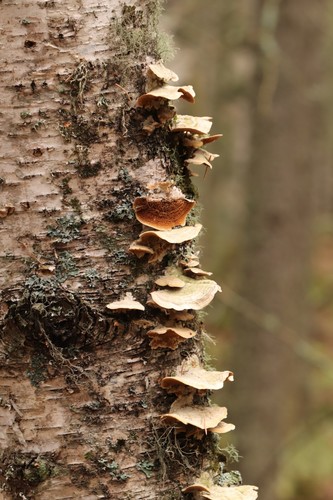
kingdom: Fungi
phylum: Basidiomycota
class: Agaricomycetes
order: Hymenochaetales
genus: Trichaptum
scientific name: Trichaptum biforme
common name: Violet-toothed polypore
